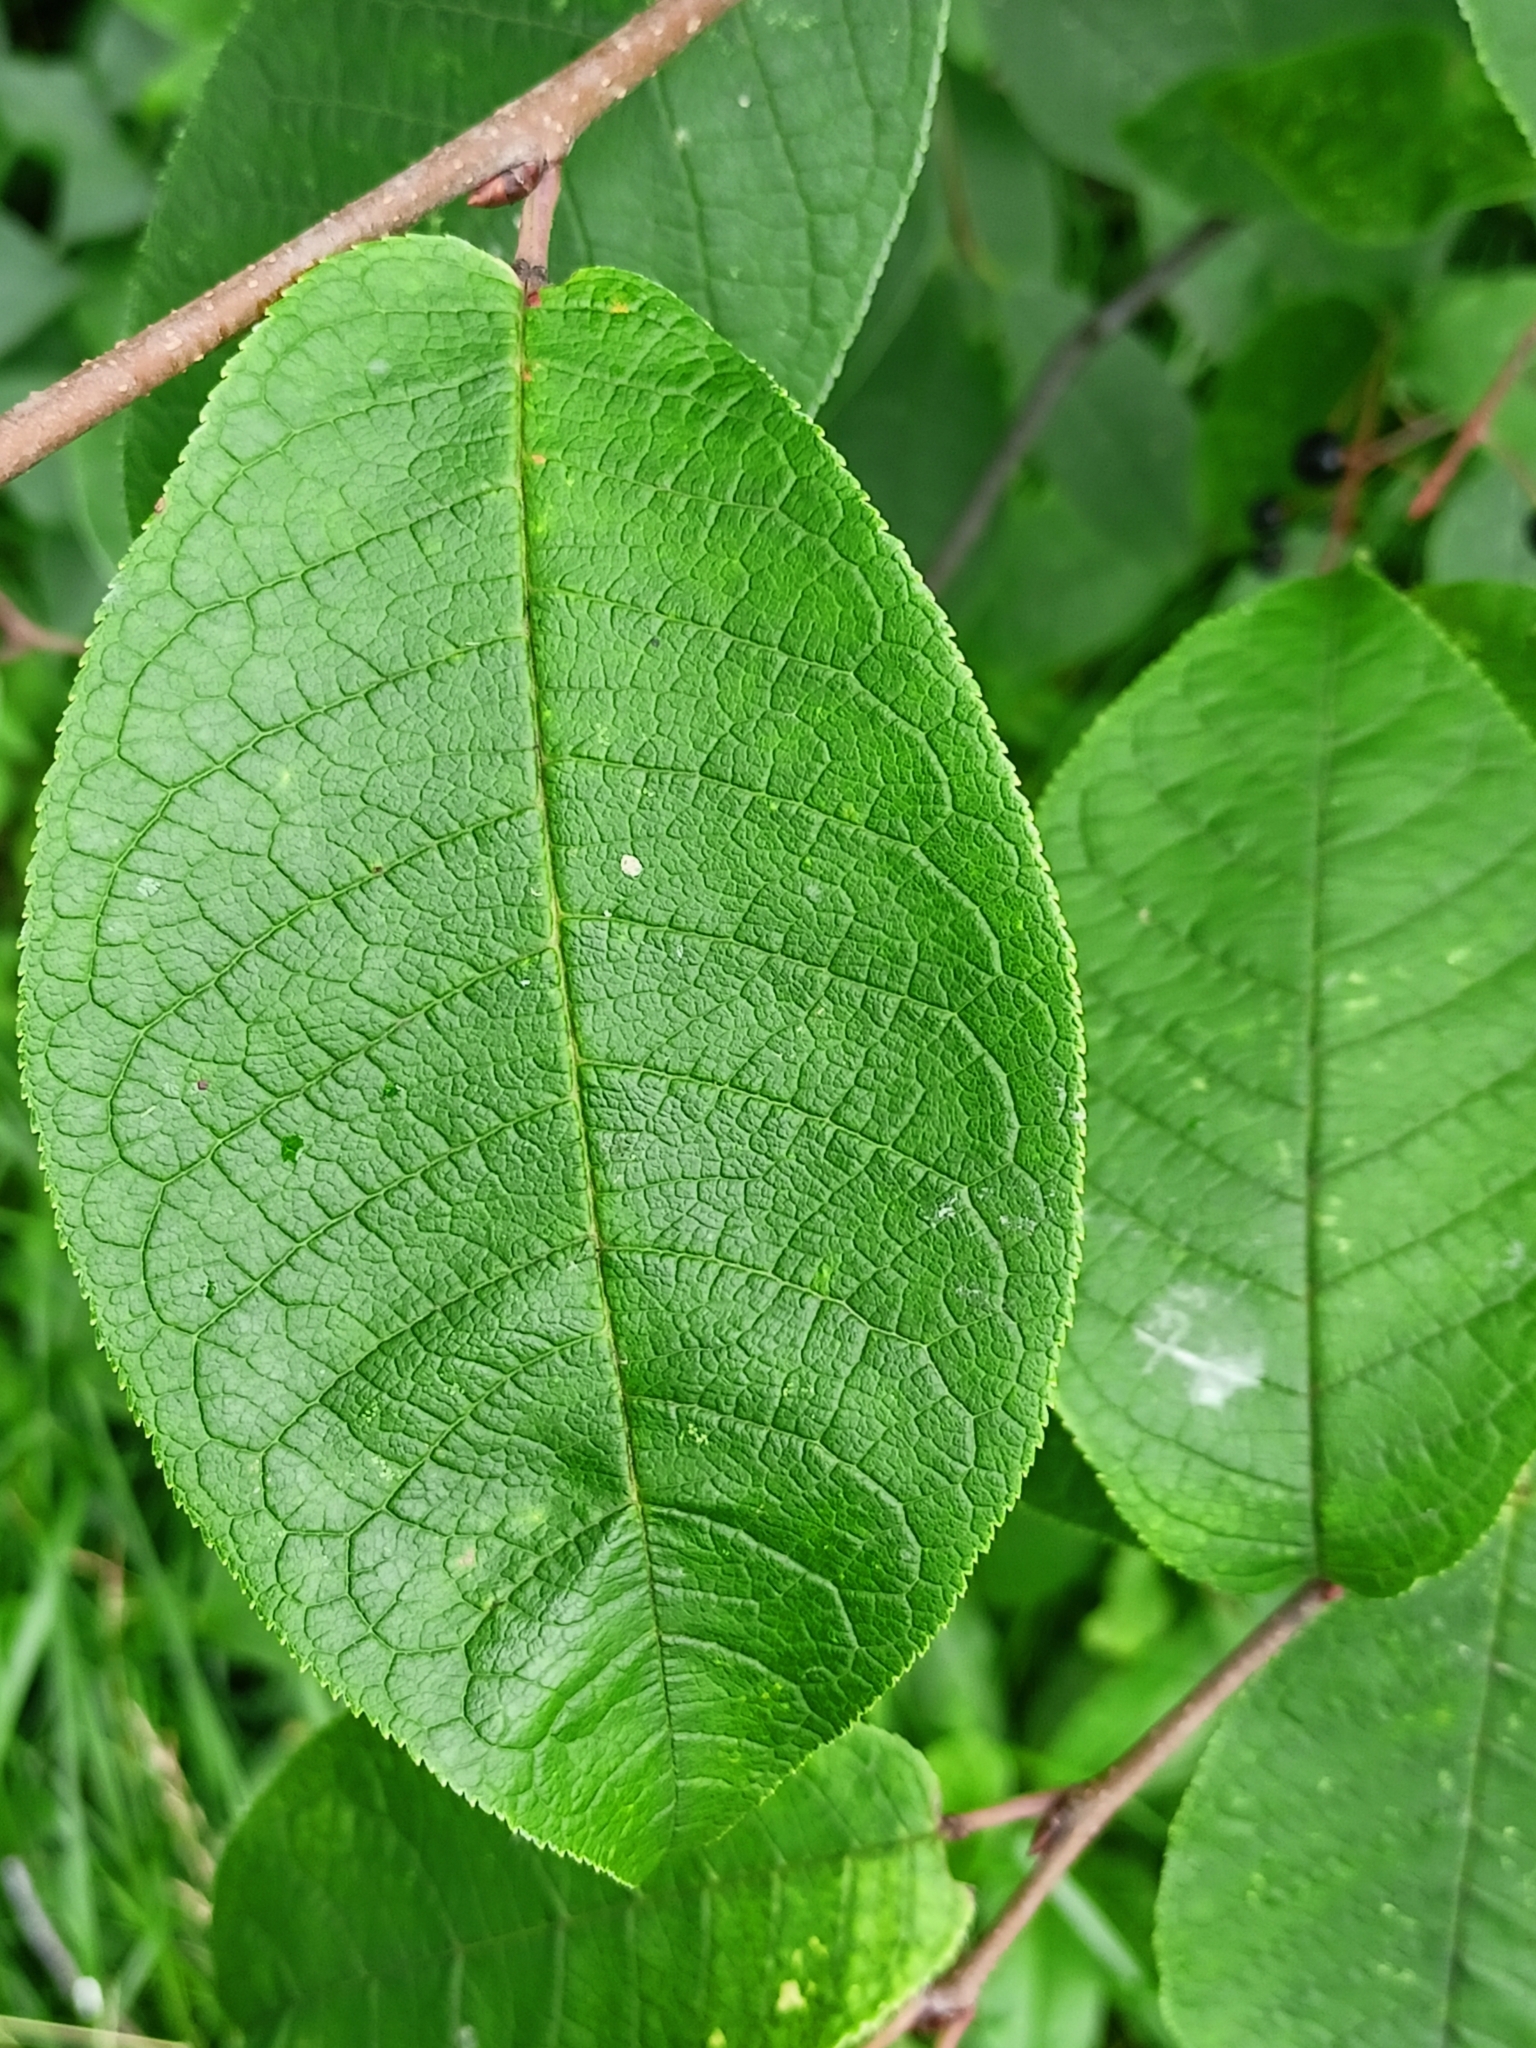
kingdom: Plantae
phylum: Tracheophyta
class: Magnoliopsida
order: Rosales
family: Rosaceae
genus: Prunus
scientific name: Prunus padus
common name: Bird cherry
